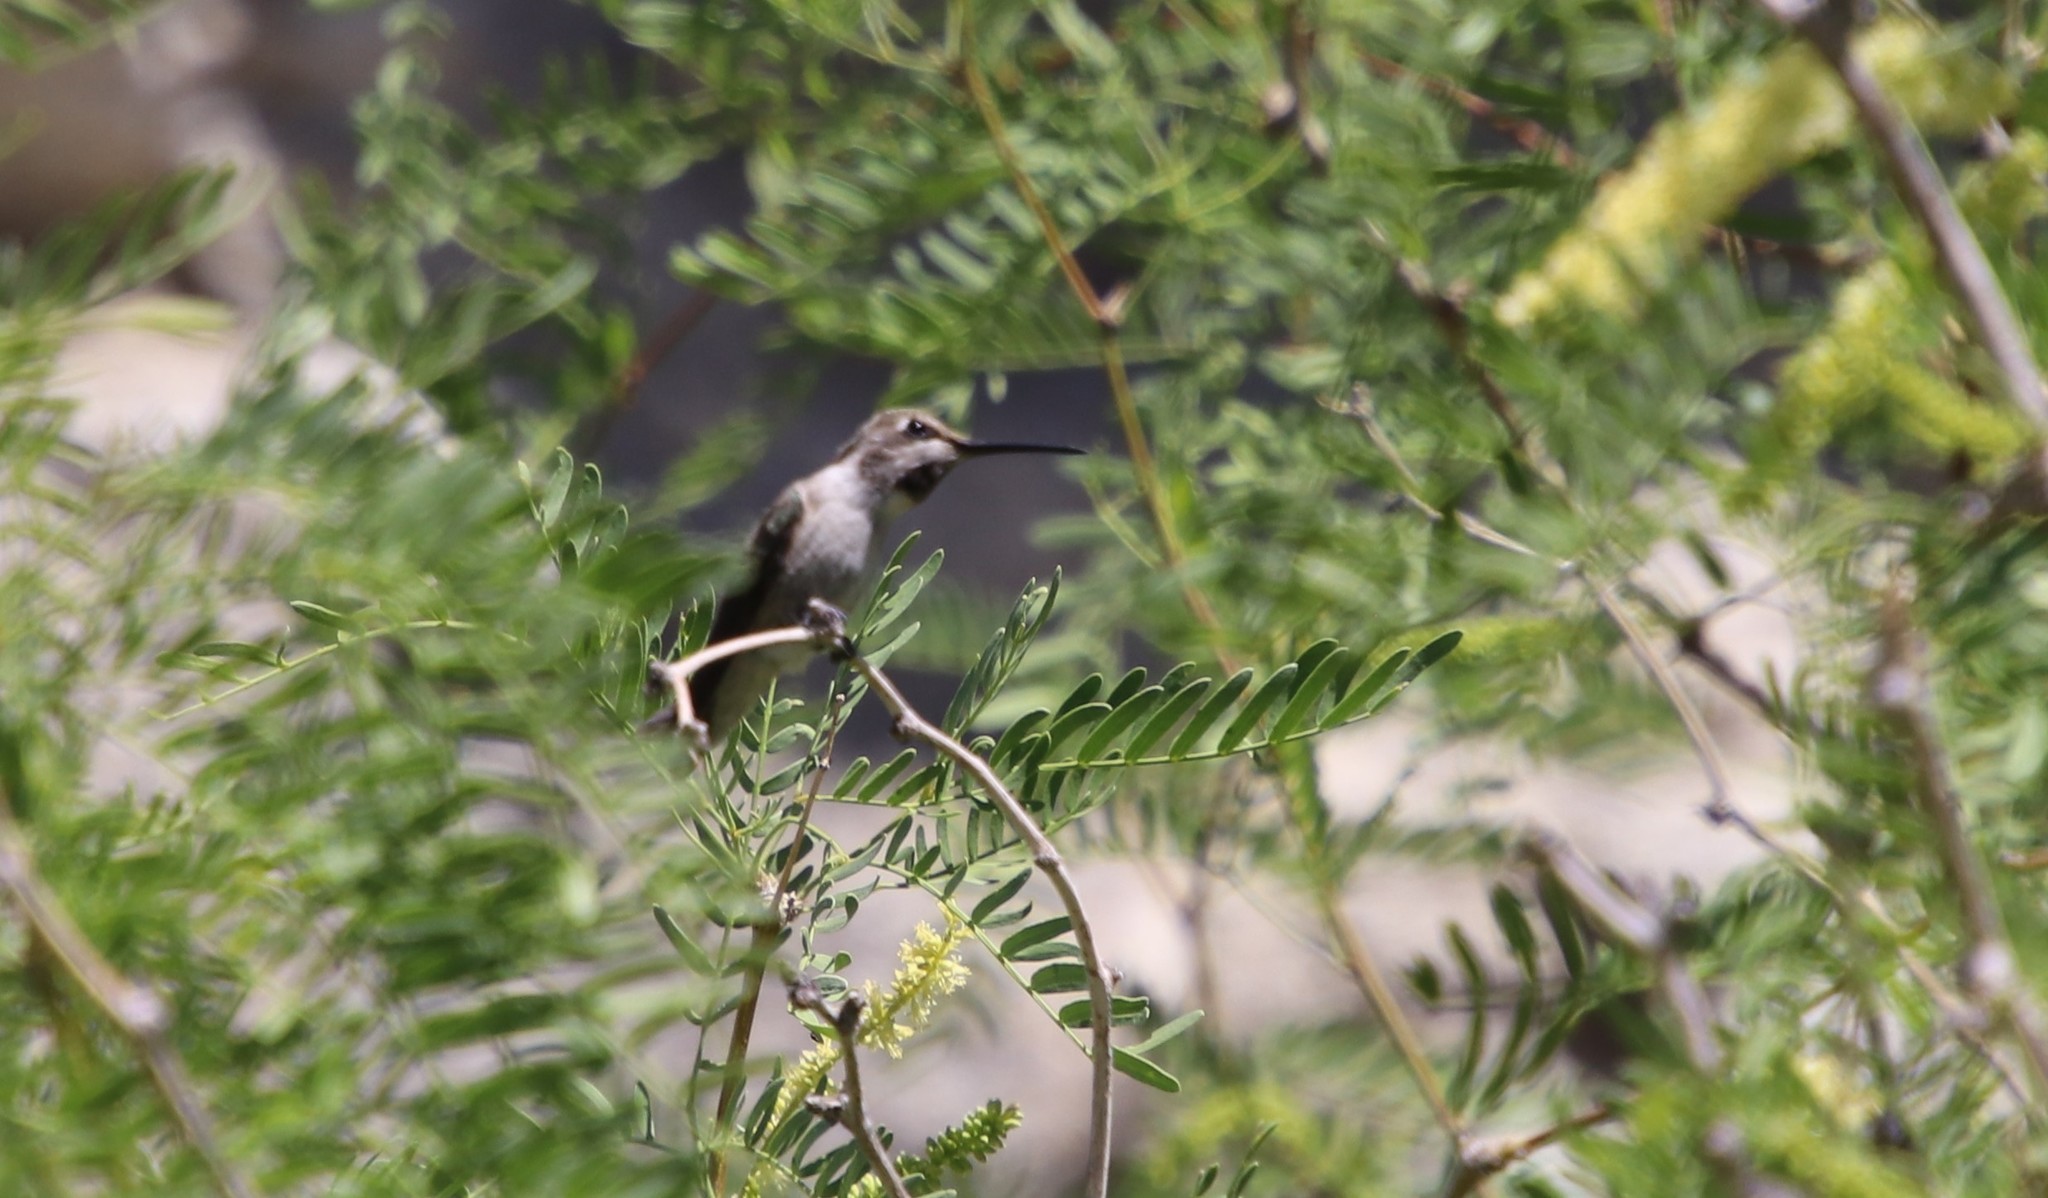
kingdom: Animalia
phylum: Chordata
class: Aves
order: Apodiformes
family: Trochilidae
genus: Calypte
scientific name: Calypte costae
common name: Costa's hummingbird
